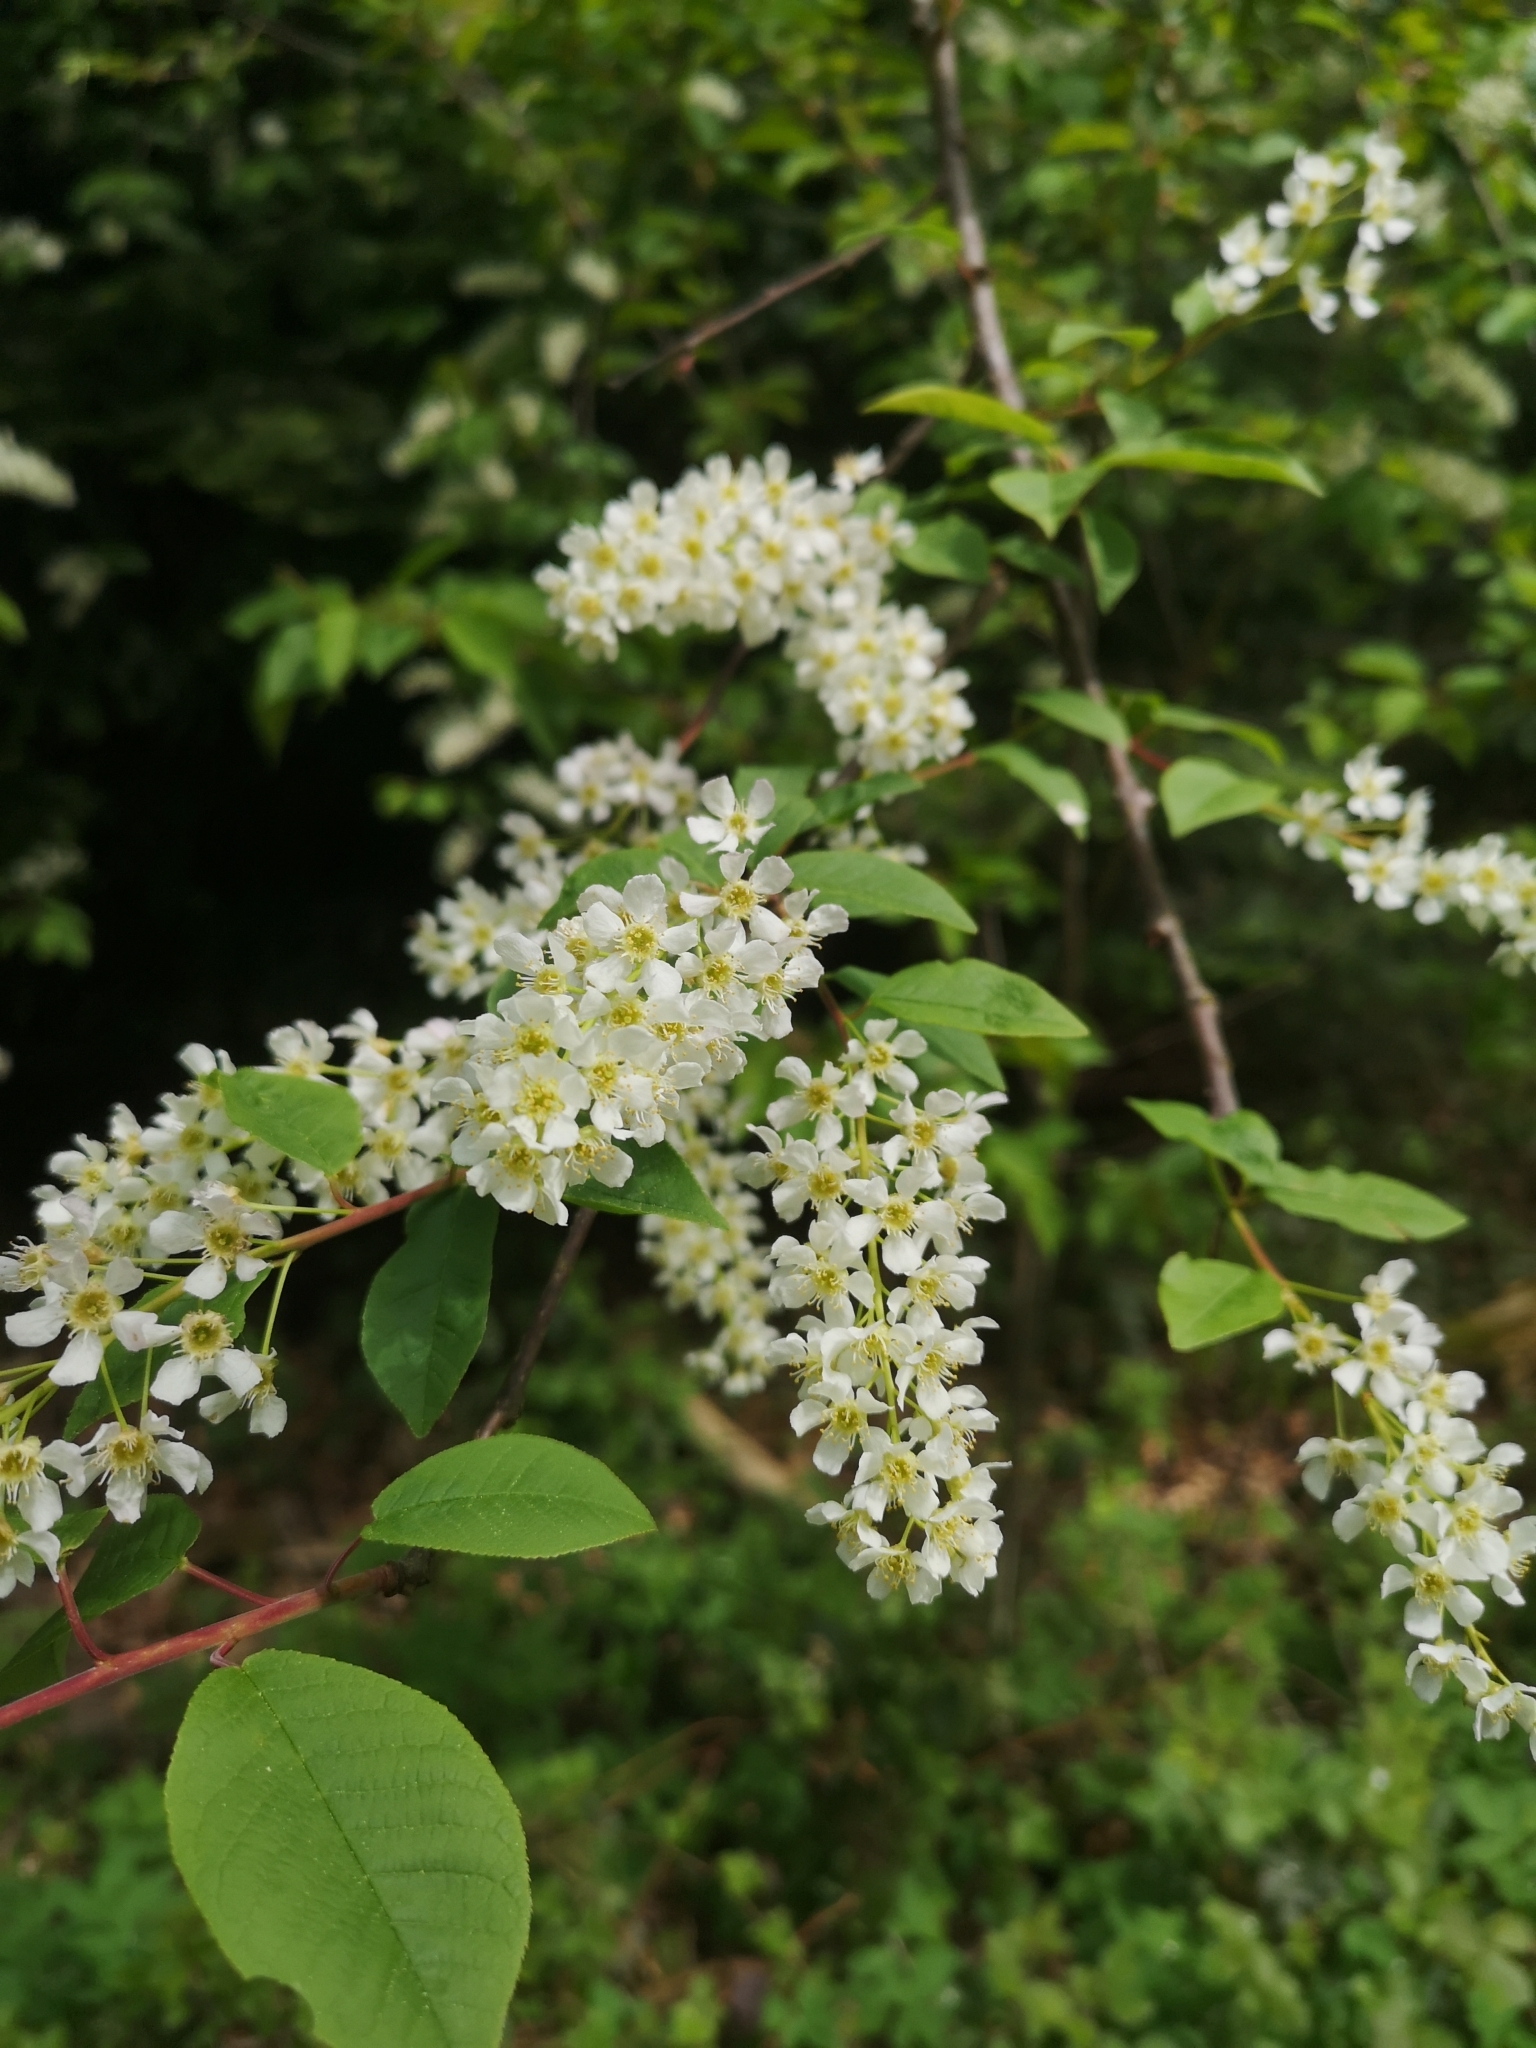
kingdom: Plantae
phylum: Tracheophyta
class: Magnoliopsida
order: Rosales
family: Rosaceae
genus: Prunus
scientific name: Prunus padus
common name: Bird cherry
